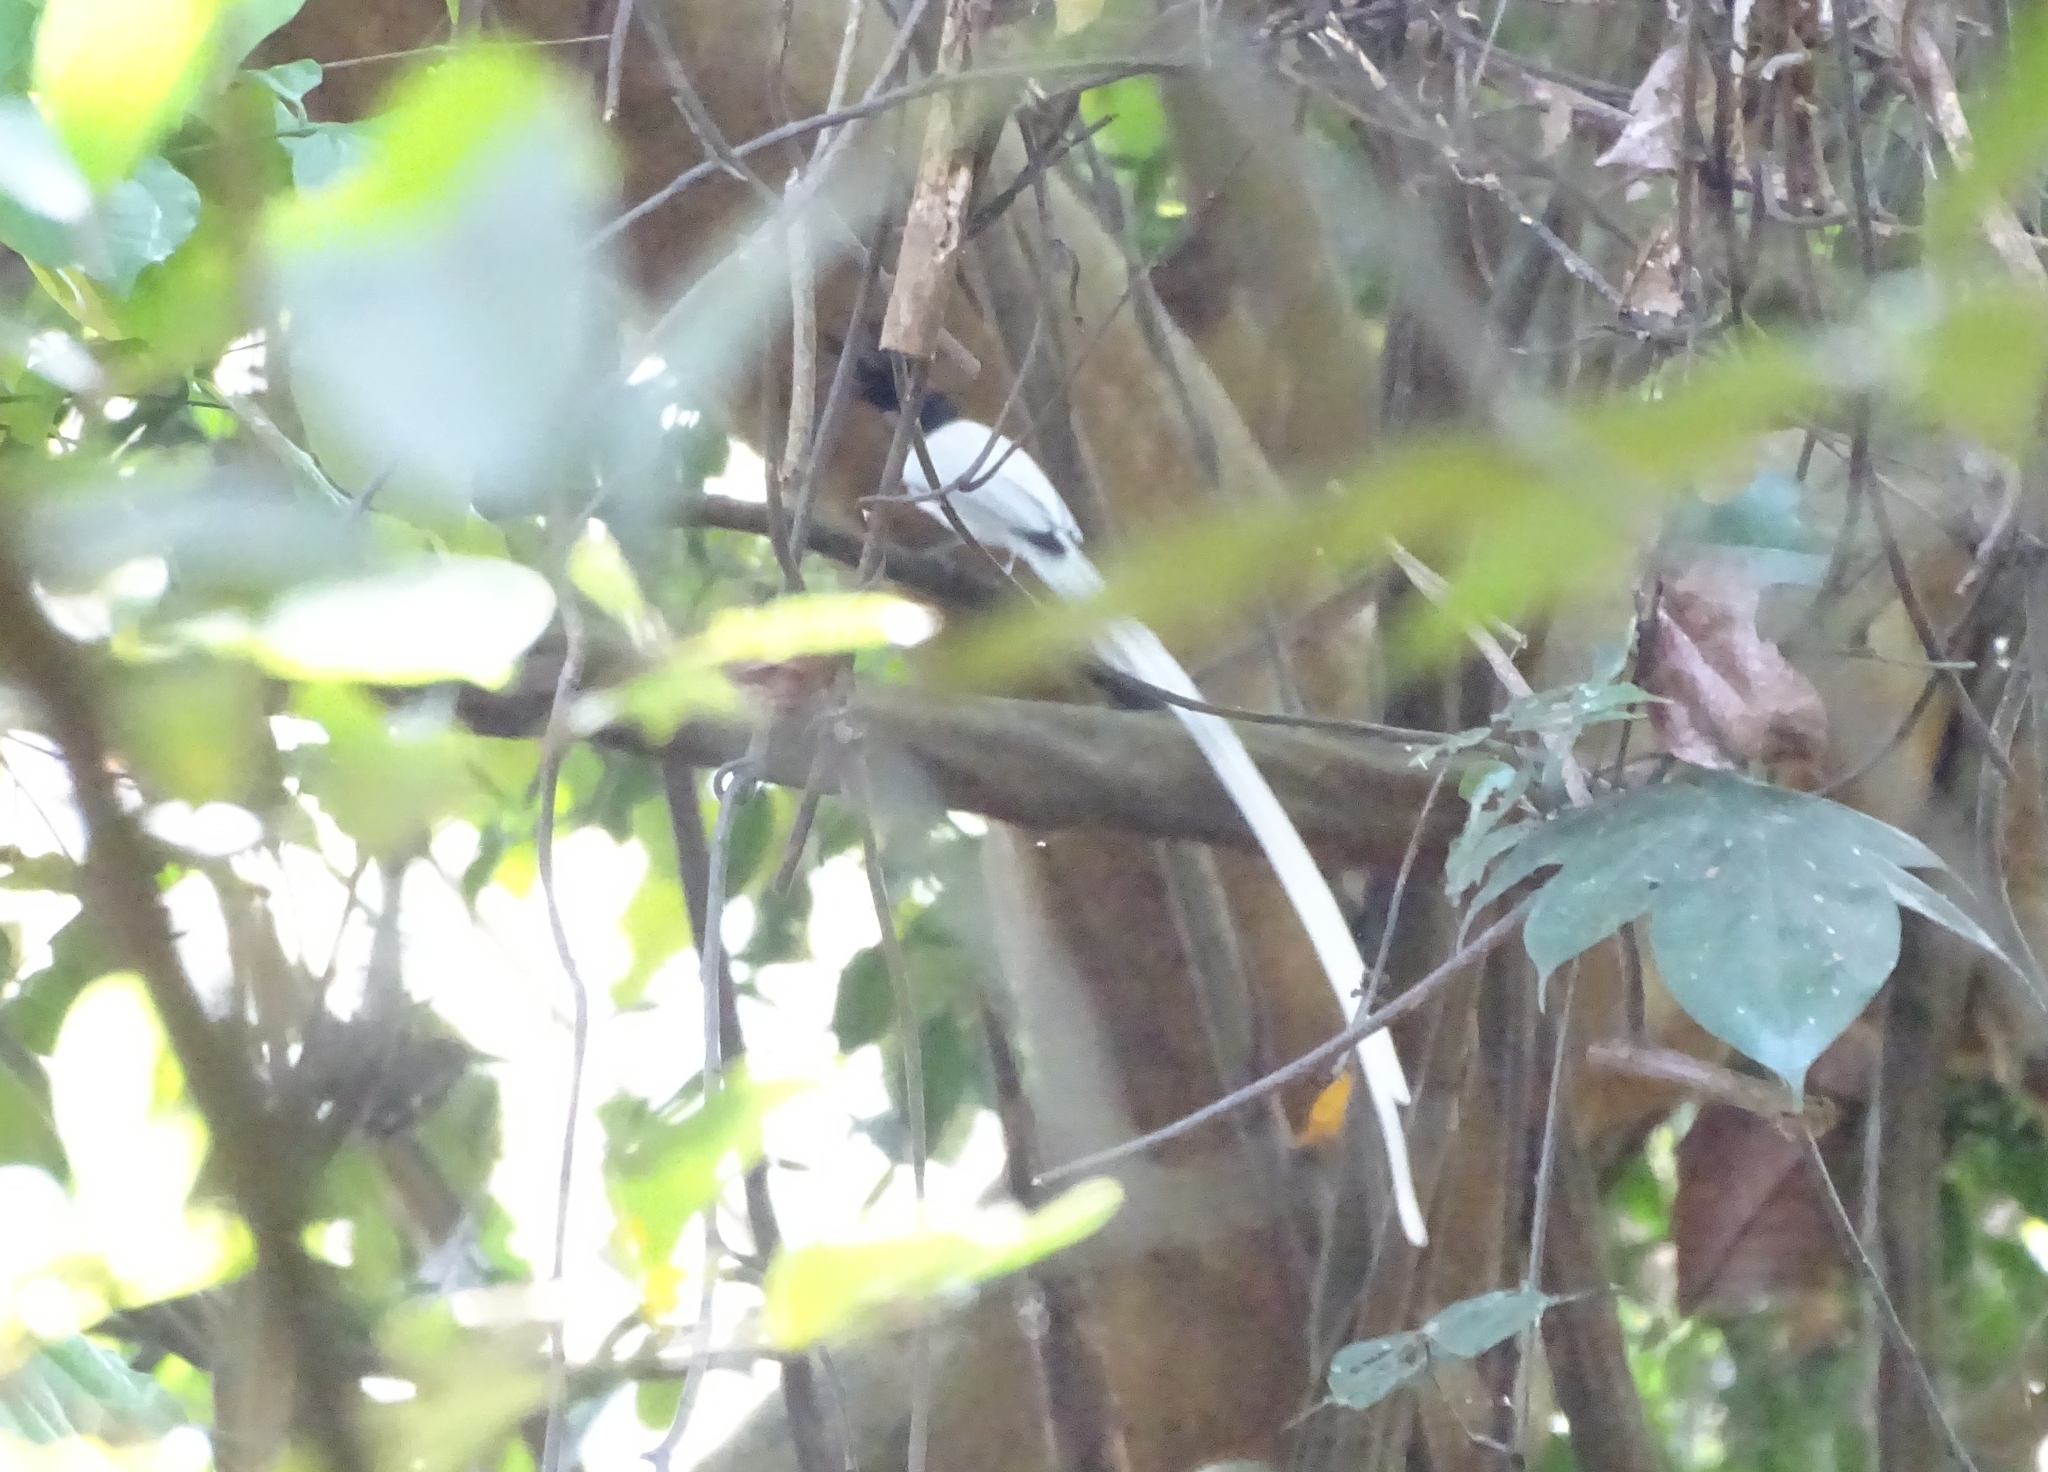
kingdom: Animalia
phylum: Chordata
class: Aves
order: Passeriformes
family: Monarchidae
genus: Terpsiphone
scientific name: Terpsiphone paradisi
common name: Indian paradise flycatcher
